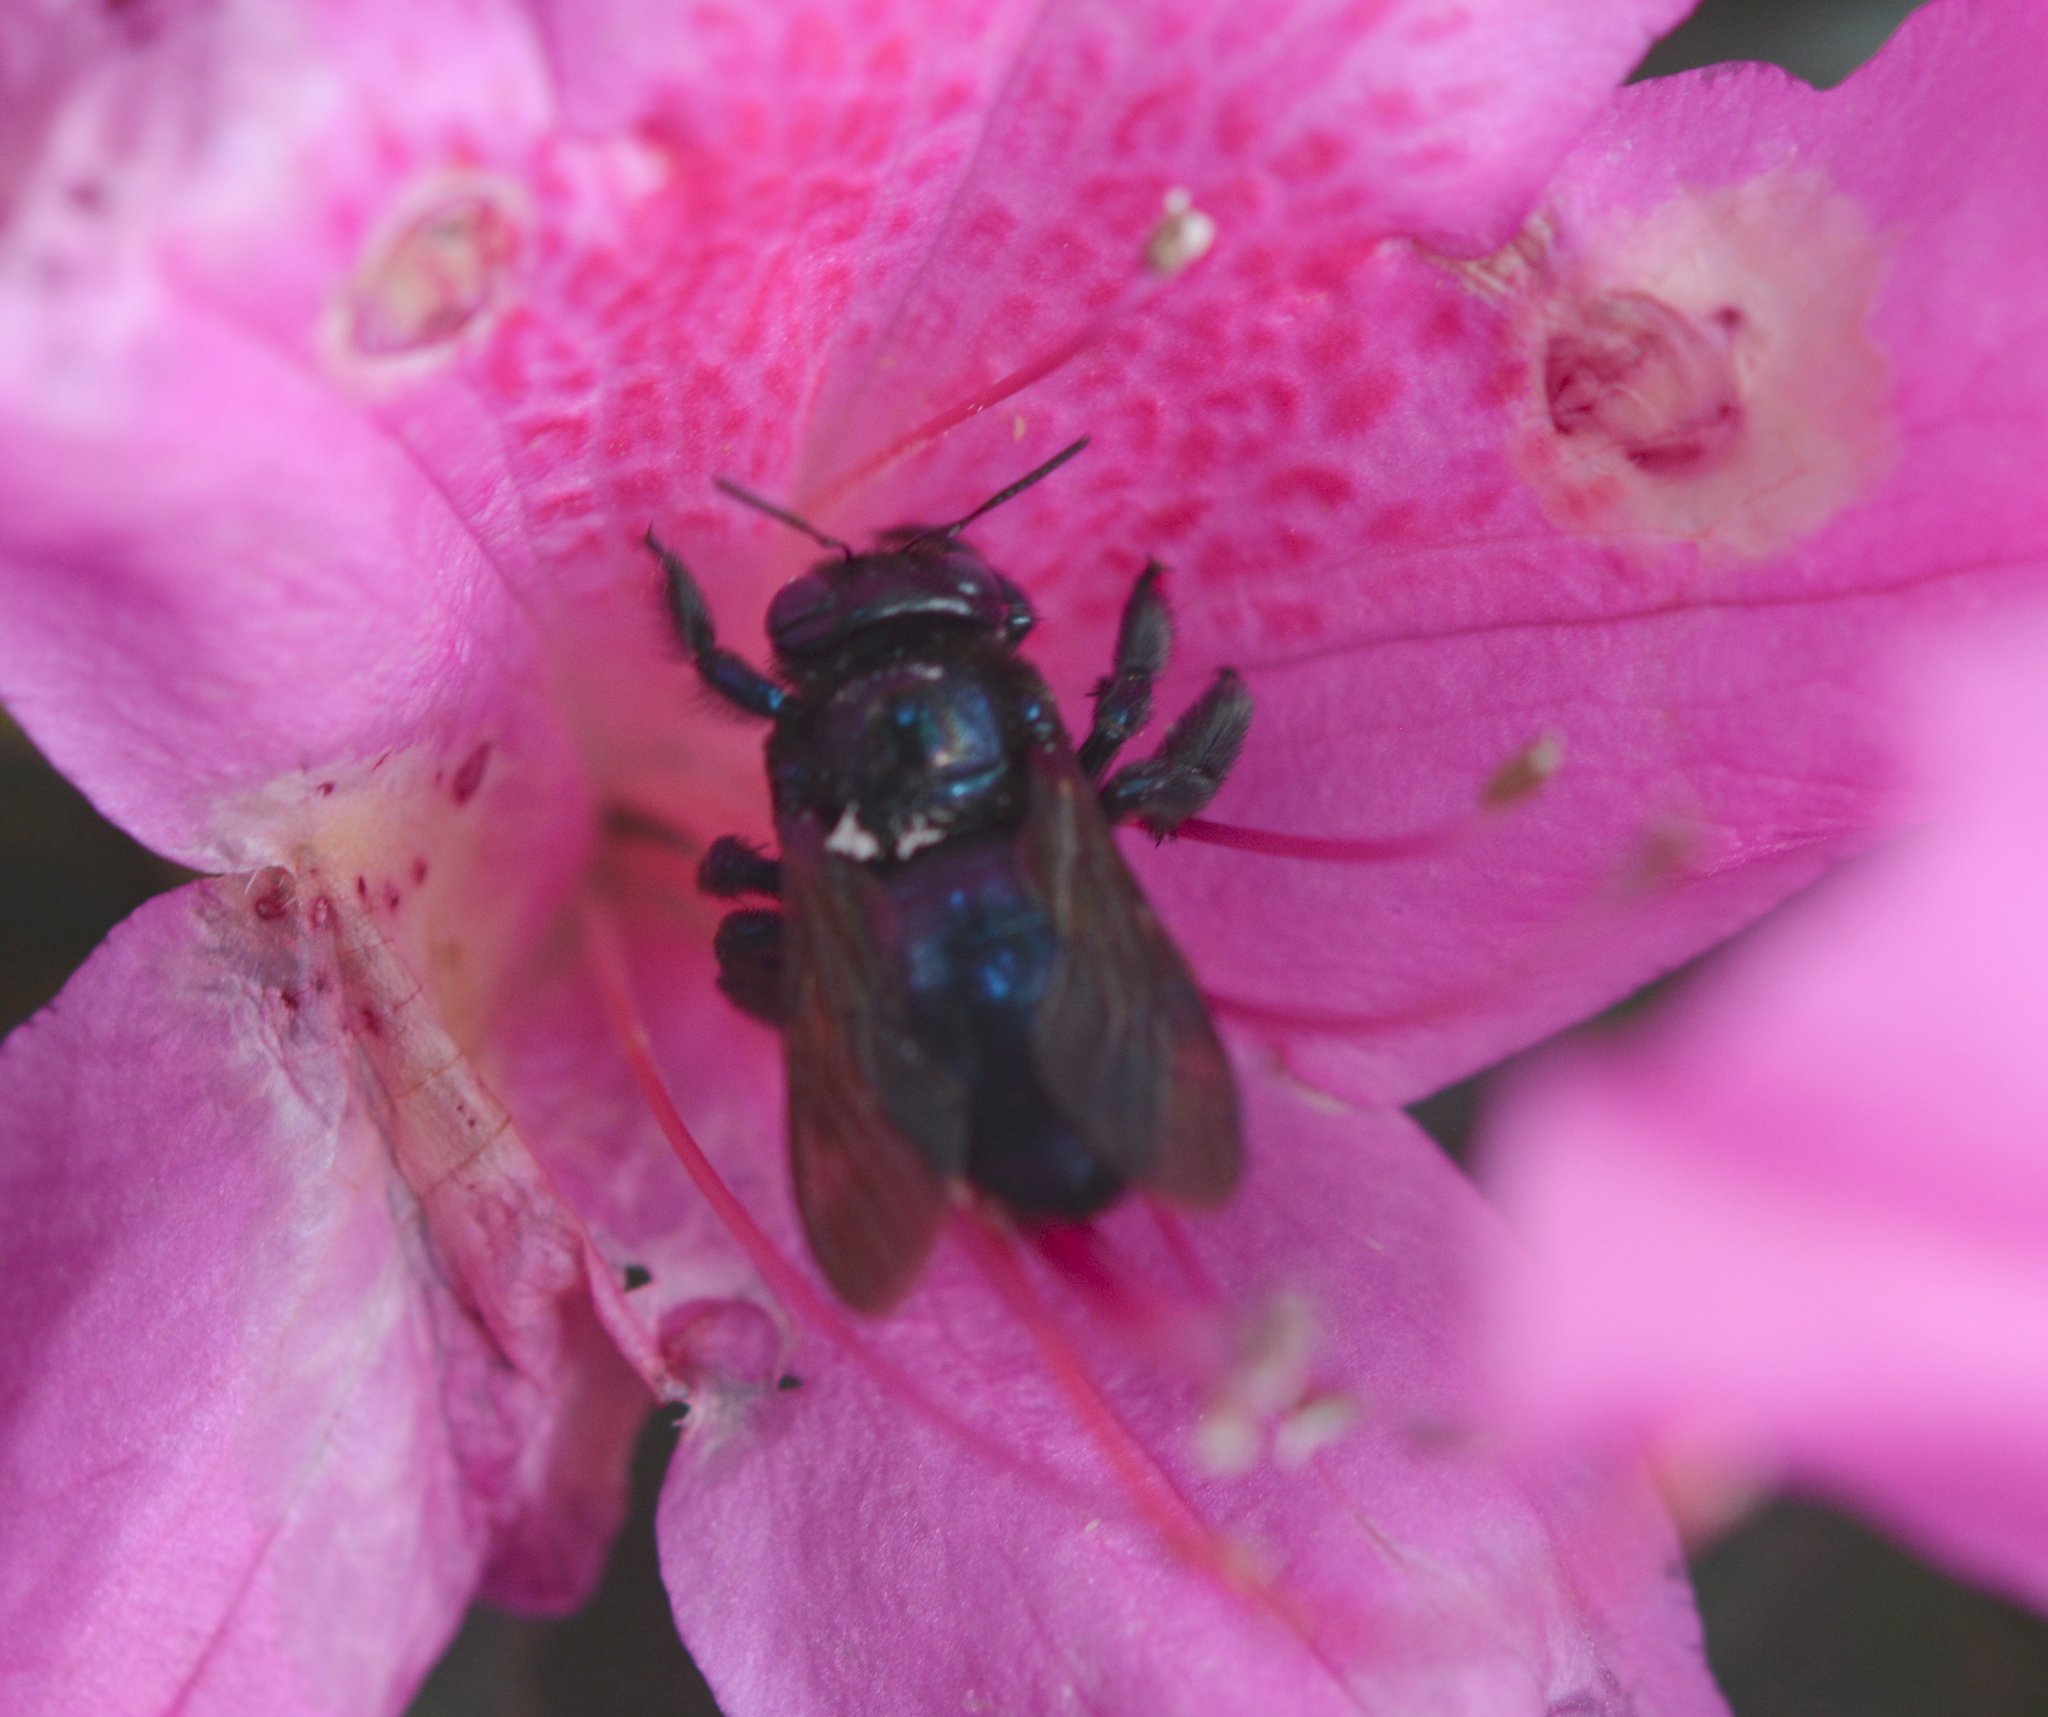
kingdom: Animalia
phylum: Arthropoda
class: Insecta
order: Hymenoptera
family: Apidae
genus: Xylocopa
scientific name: Xylocopa micans
